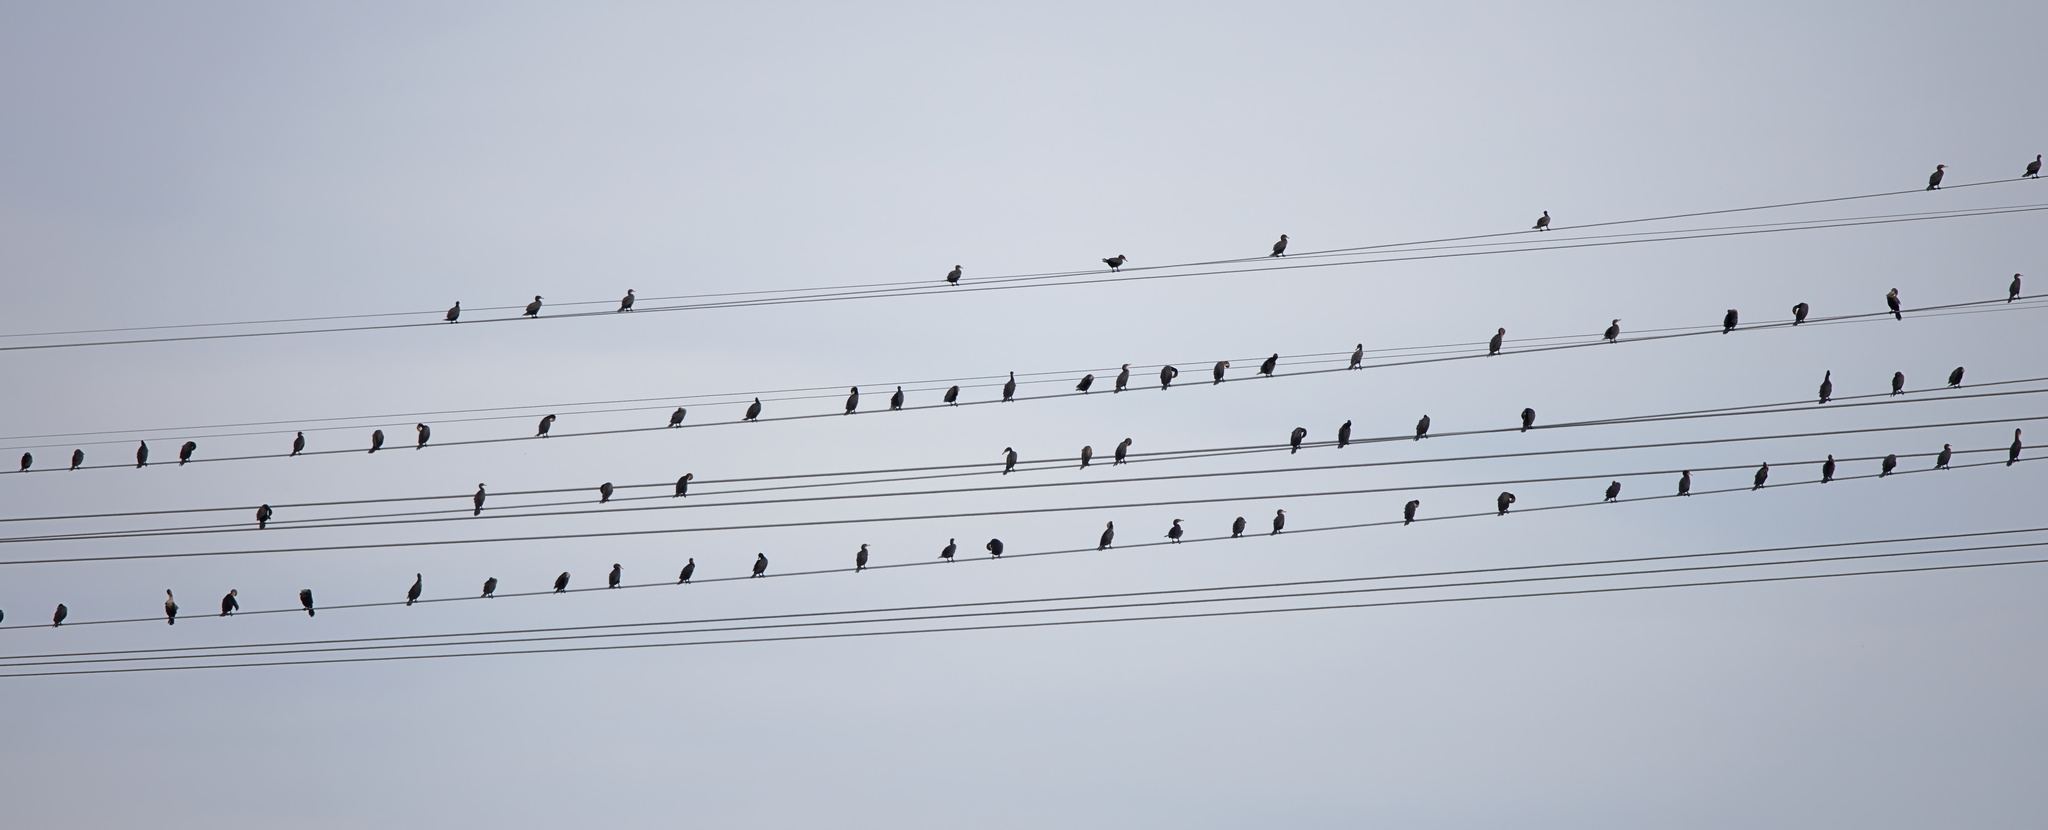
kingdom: Animalia
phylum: Chordata
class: Aves
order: Suliformes
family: Phalacrocoracidae
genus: Phalacrocorax
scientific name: Phalacrocorax auritus
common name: Double-crested cormorant
